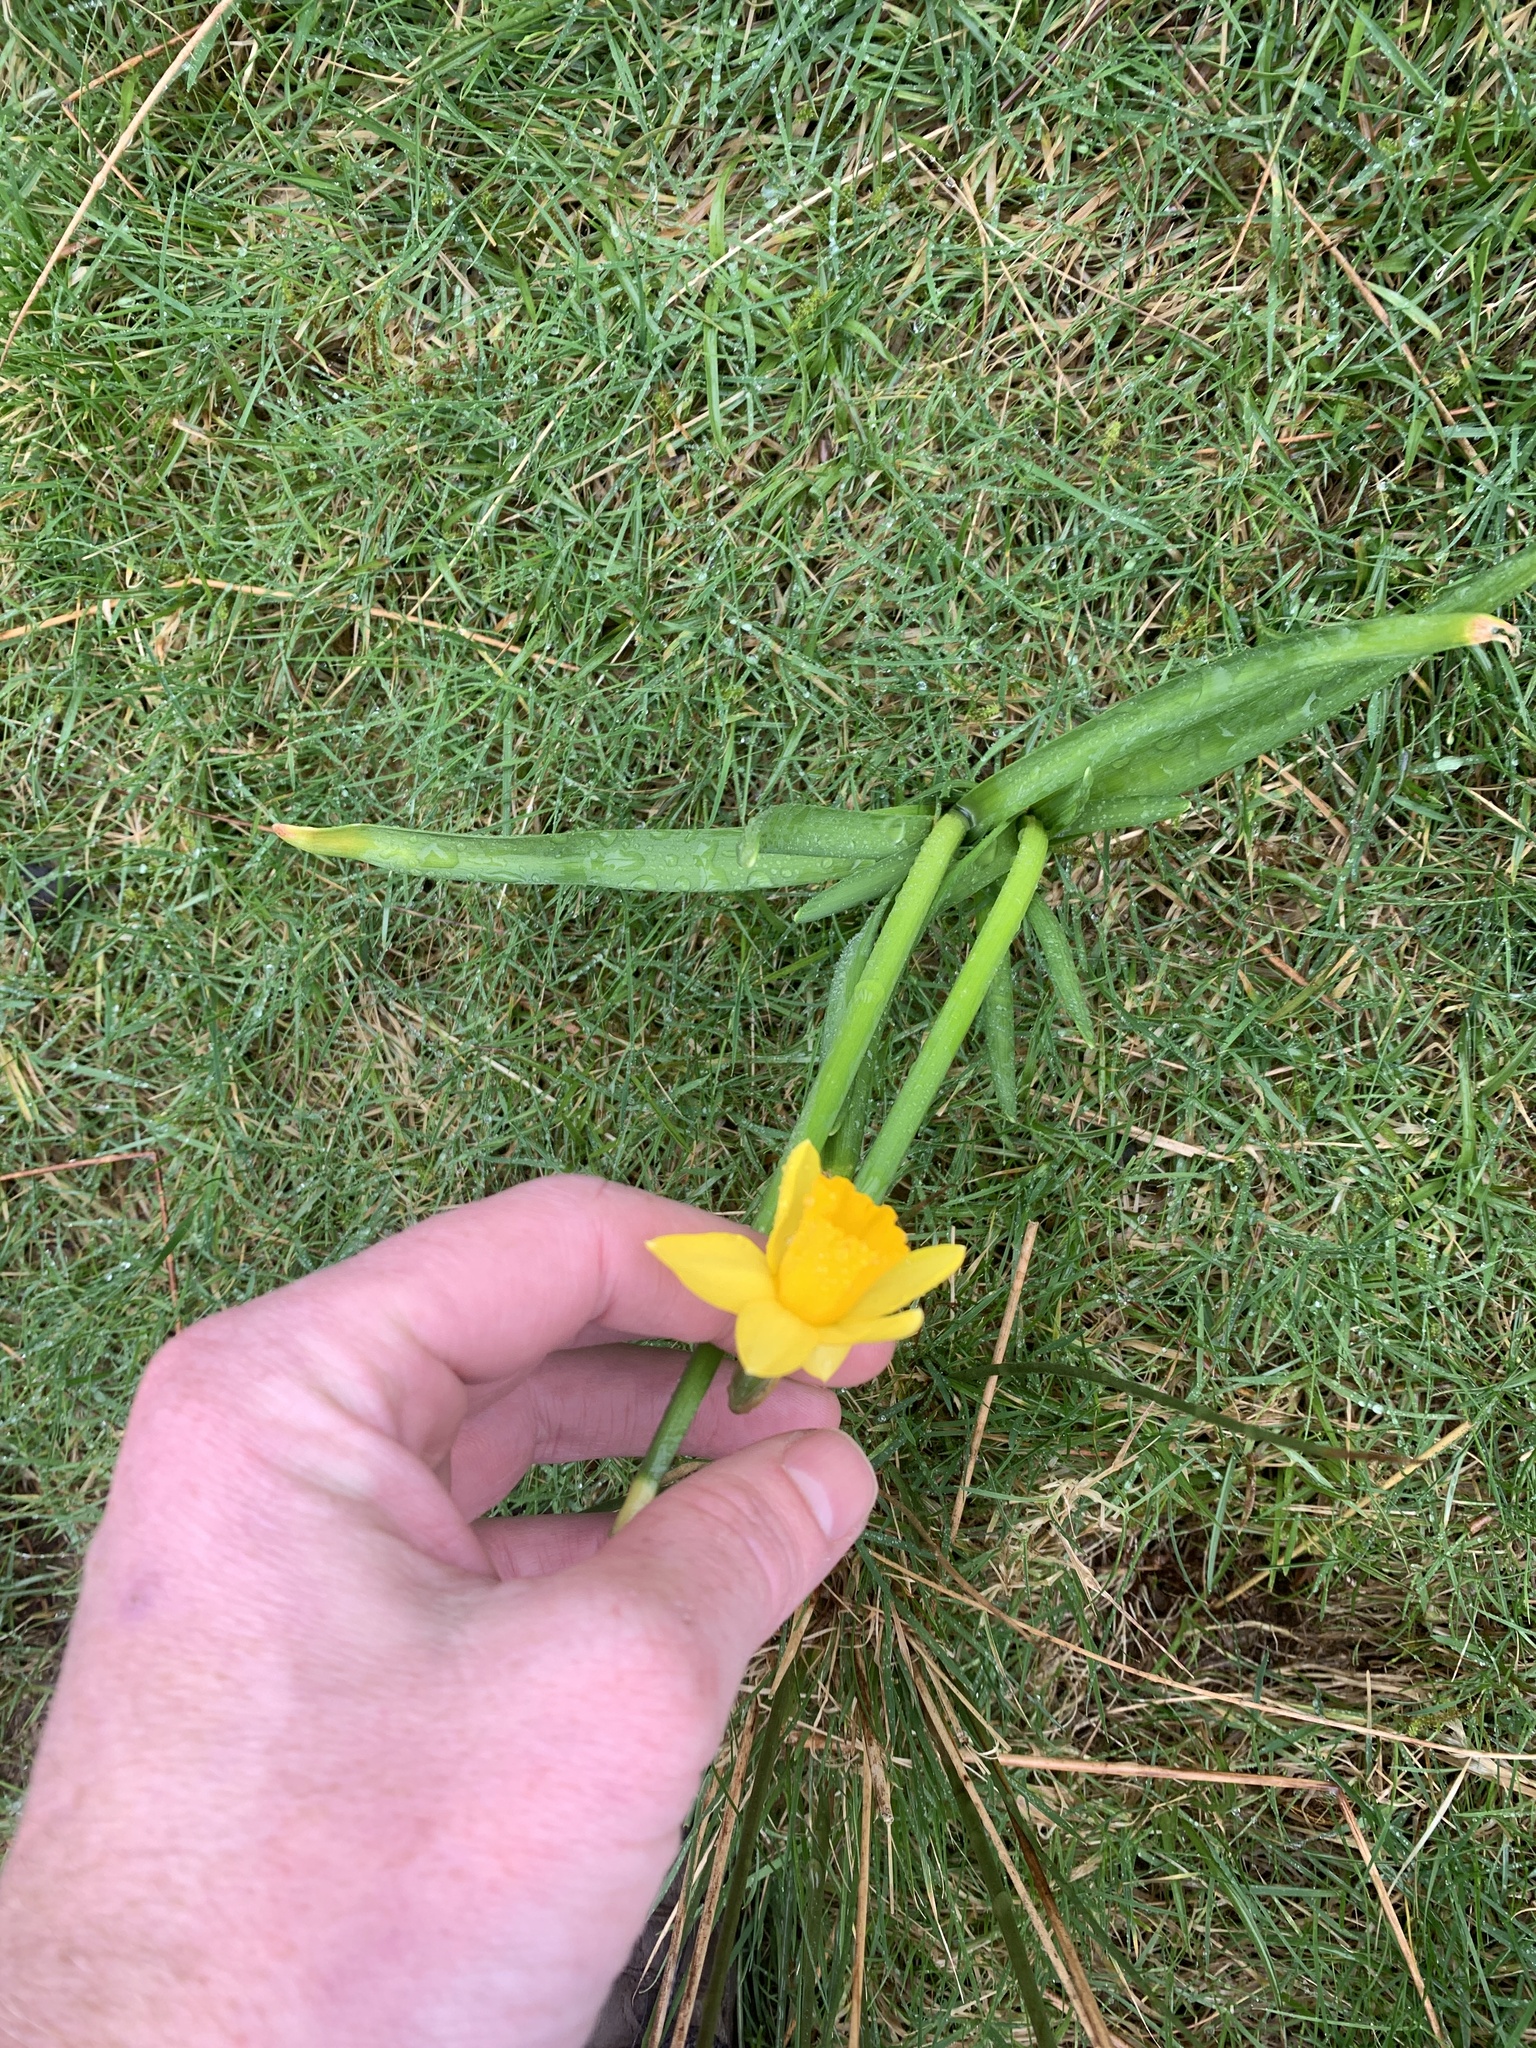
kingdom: Plantae
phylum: Tracheophyta
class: Liliopsida
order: Asparagales
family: Amaryllidaceae
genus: Narcissus
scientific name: Narcissus
